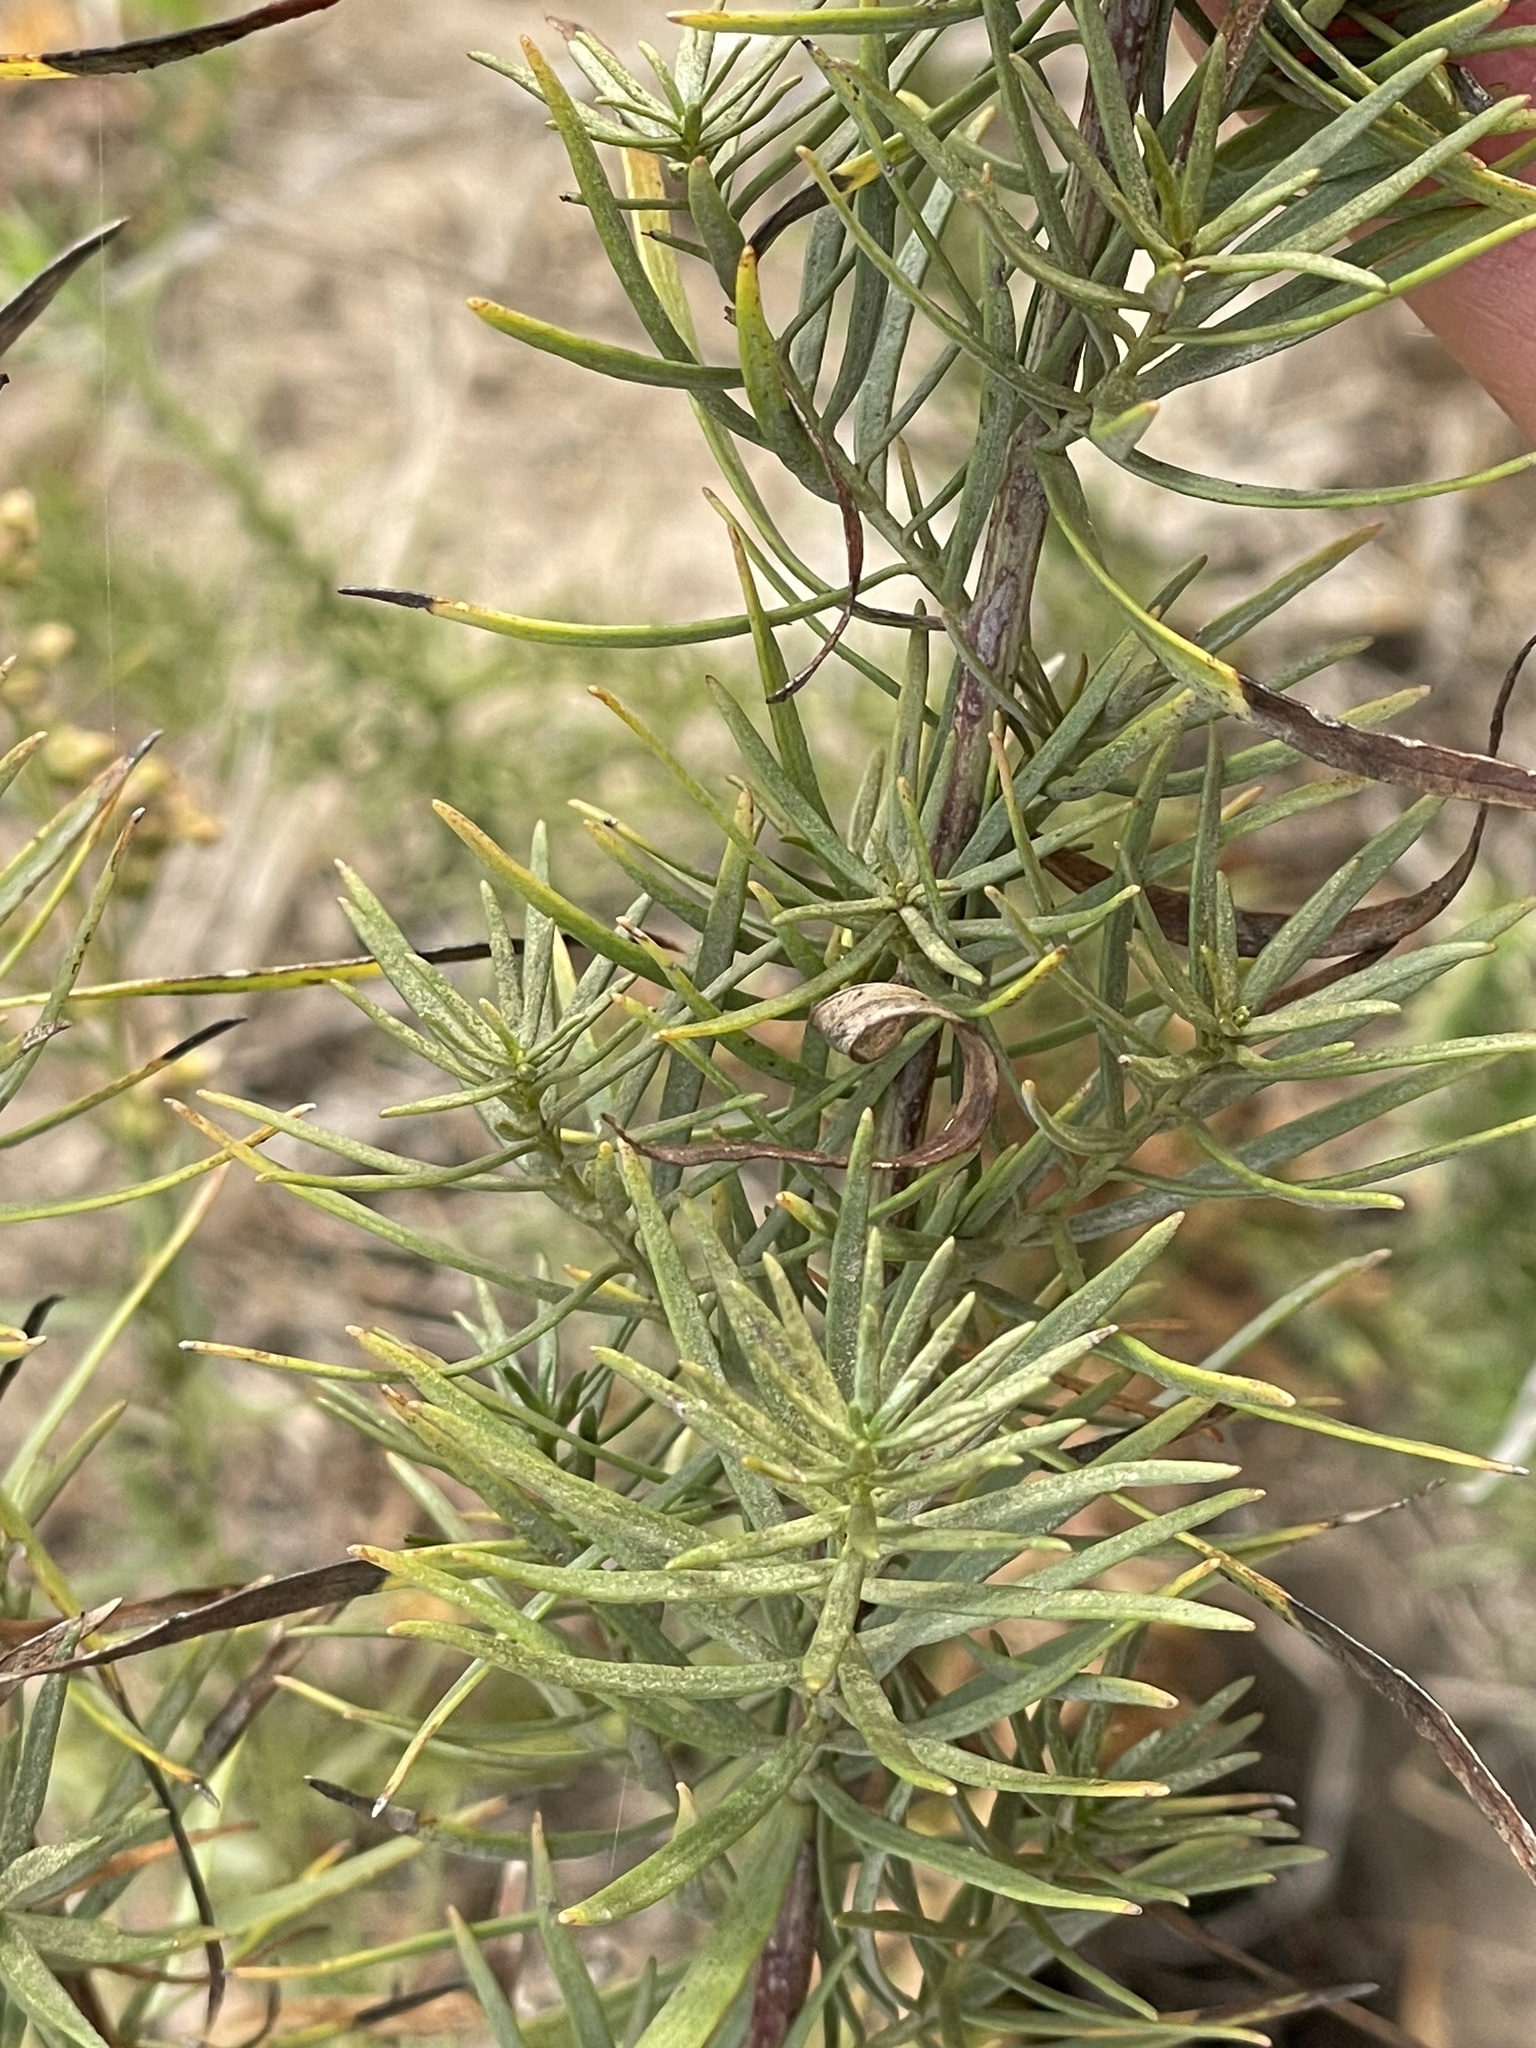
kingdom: Plantae
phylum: Tracheophyta
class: Magnoliopsida
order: Asterales
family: Asteraceae
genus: Artemisia
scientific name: Artemisia dracunculus
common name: Tarragon
